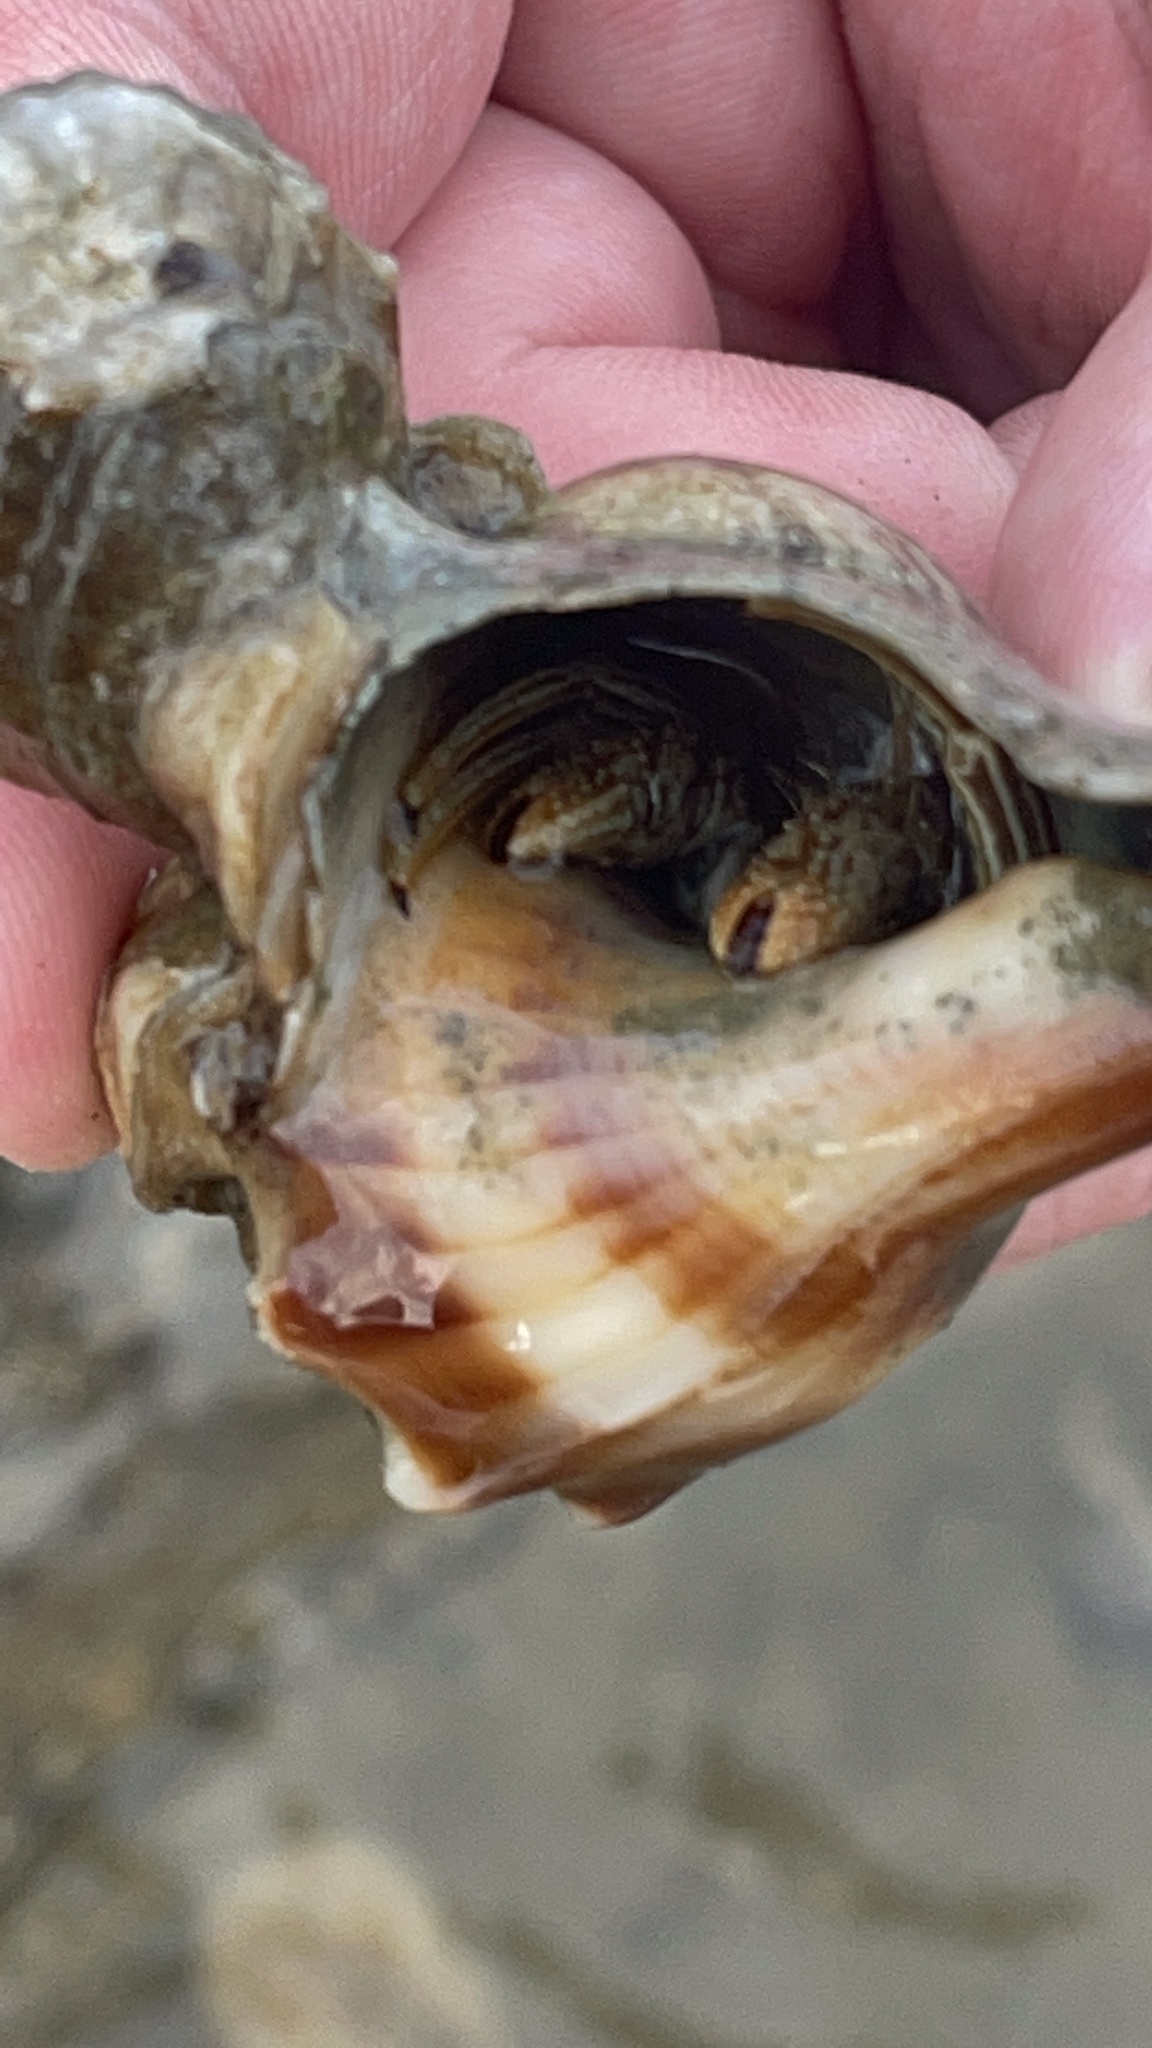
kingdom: Animalia
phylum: Arthropoda
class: Malacostraca
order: Decapoda
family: Diogenidae
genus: Clibanarius
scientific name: Clibanarius vittatus
